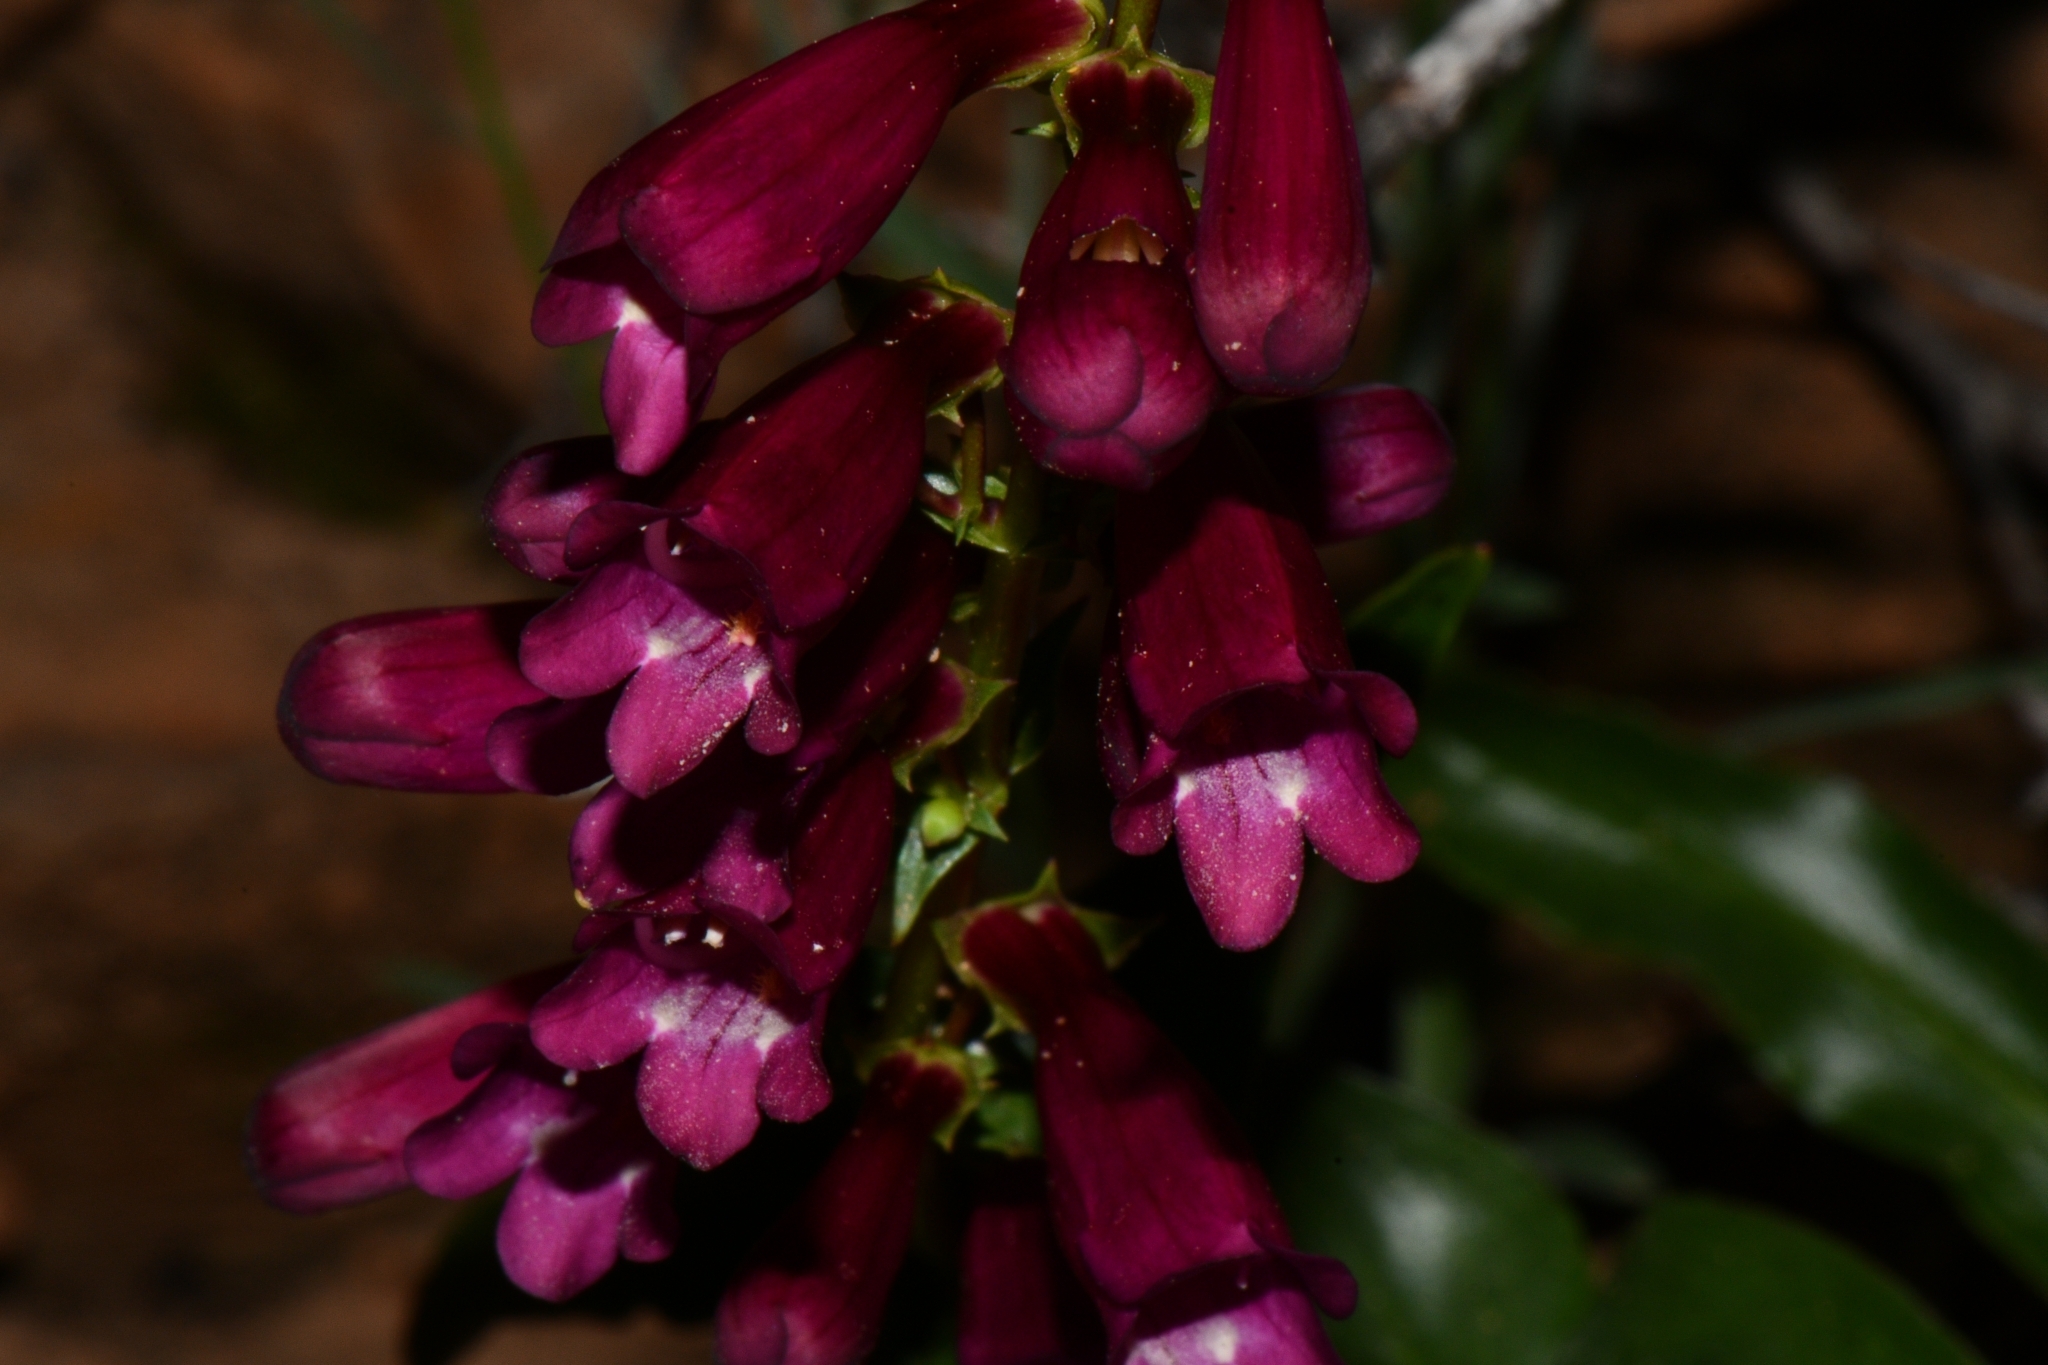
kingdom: Plantae
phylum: Tracheophyta
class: Magnoliopsida
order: Lamiales
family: Plantaginaceae
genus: Penstemon
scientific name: Penstemon jonesii
